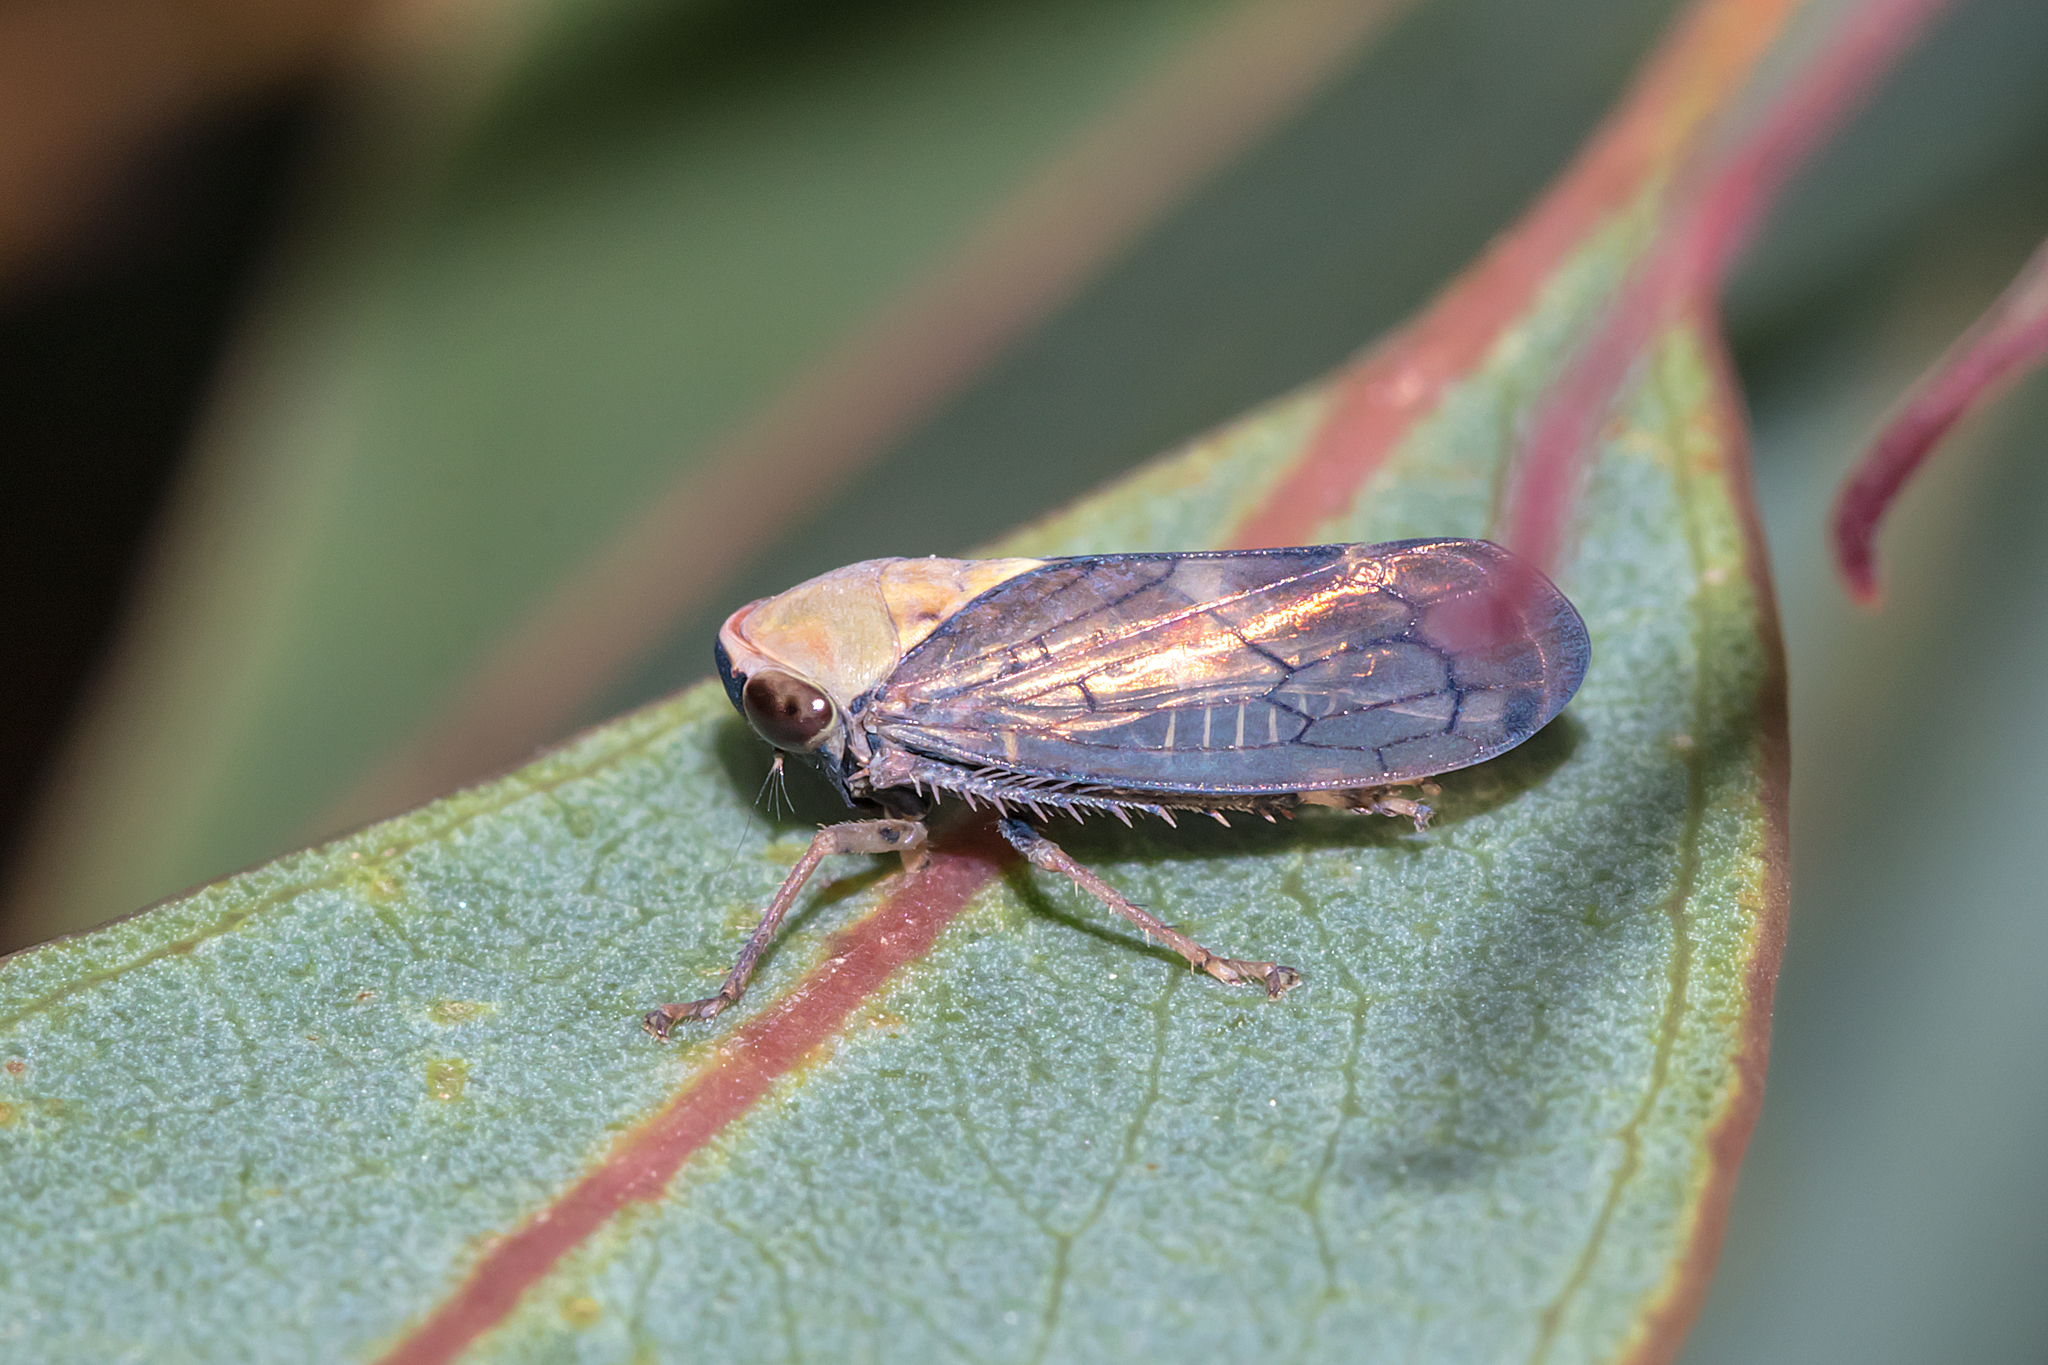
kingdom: Animalia
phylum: Arthropoda
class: Insecta
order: Hemiptera
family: Cicadellidae
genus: Brunotartessus
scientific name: Brunotartessus fulvus
